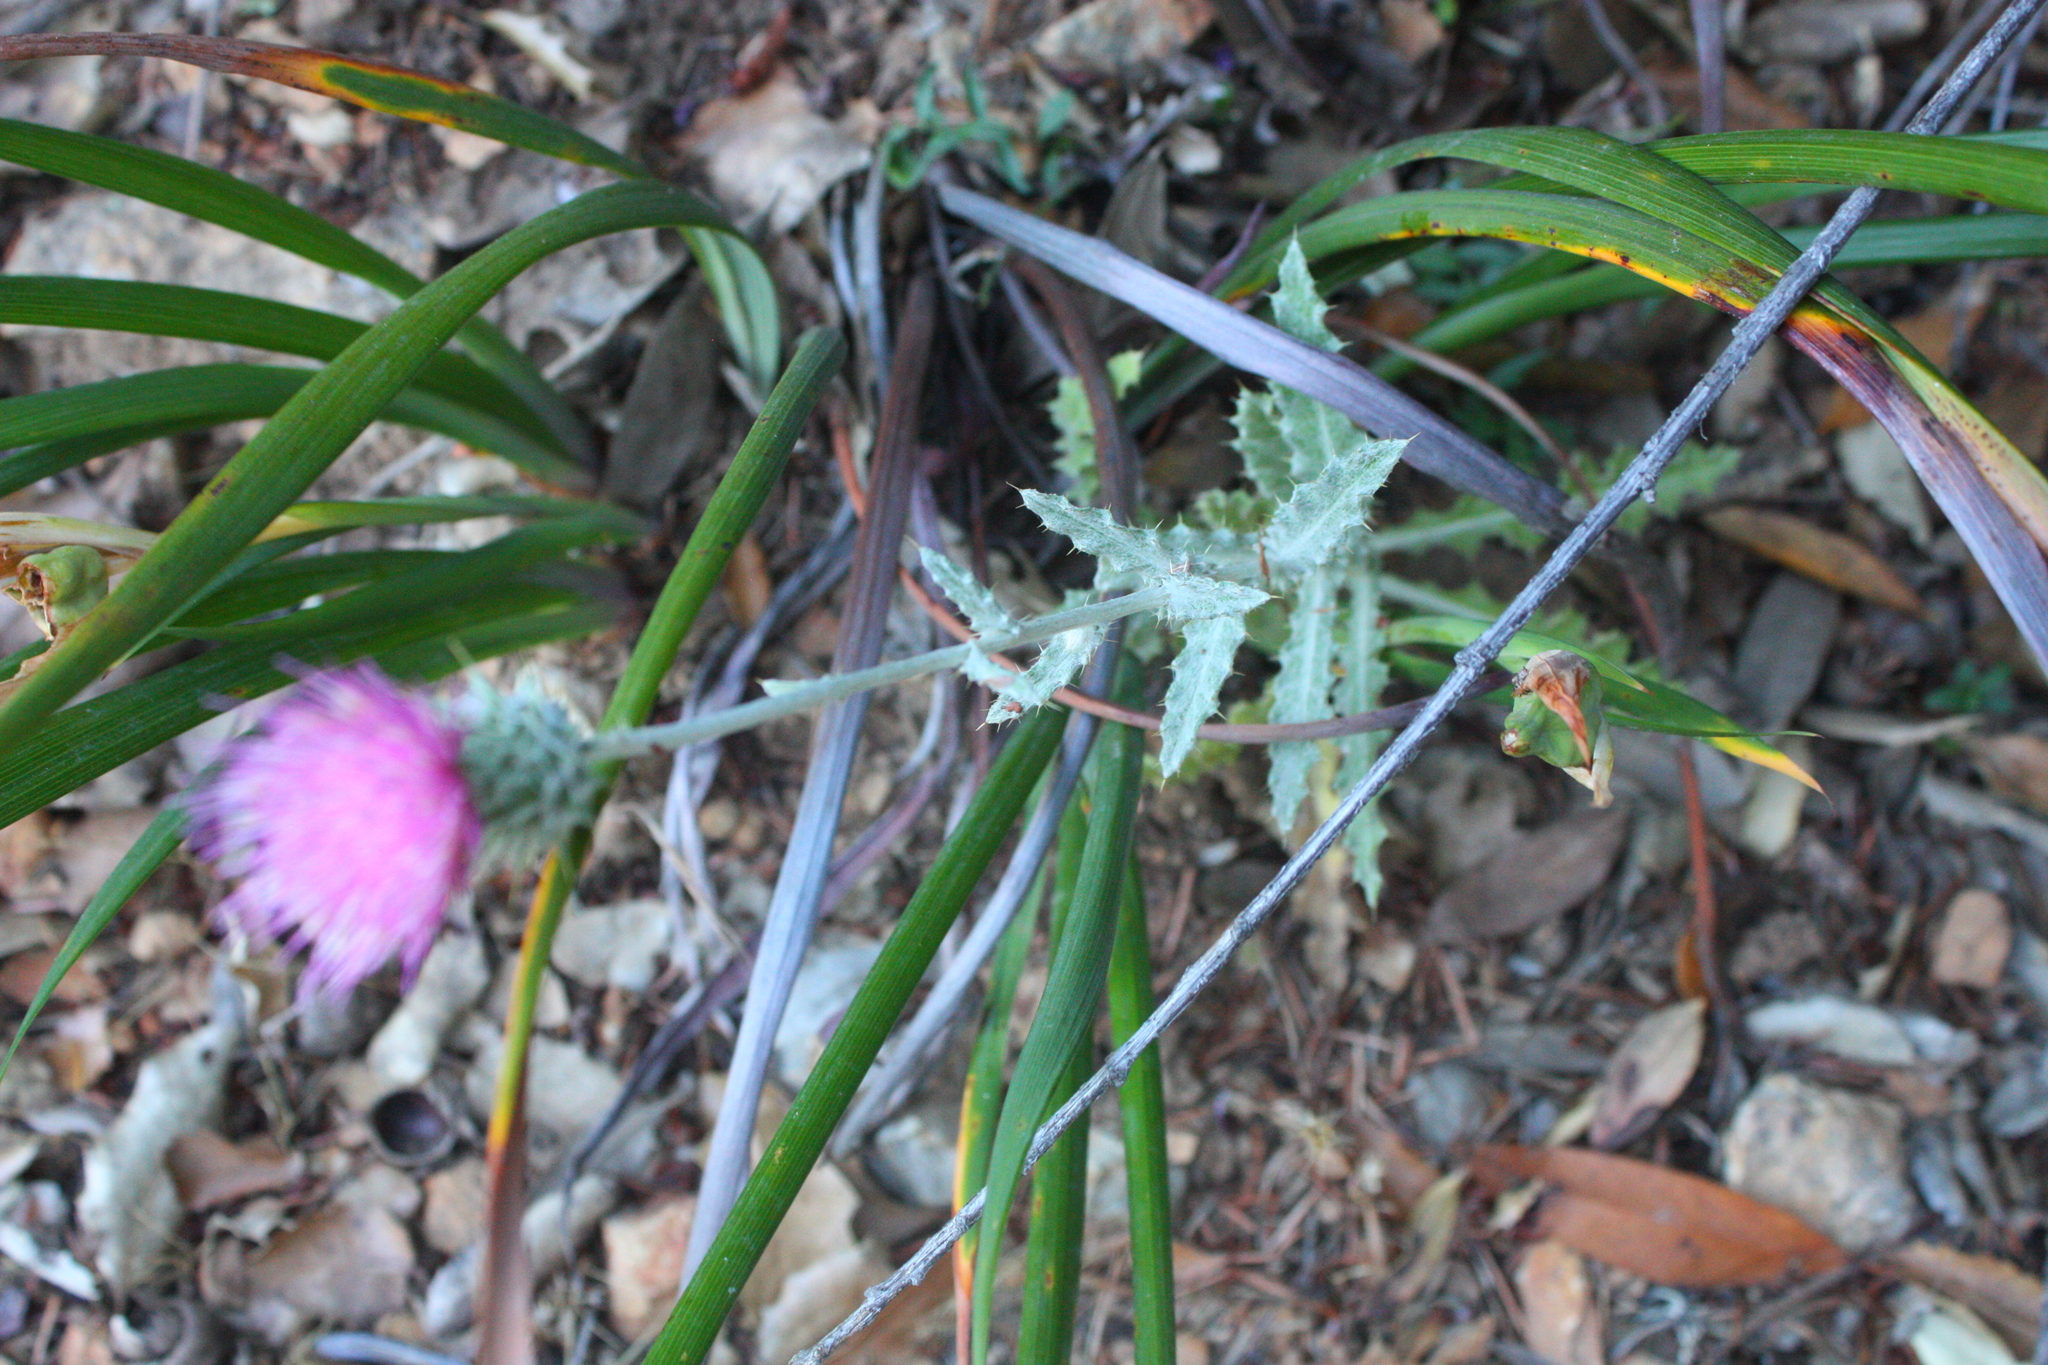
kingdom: Plantae
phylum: Tracheophyta
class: Magnoliopsida
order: Asterales
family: Asteraceae
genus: Cirsium
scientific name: Cirsium occidentale
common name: Western thistle
